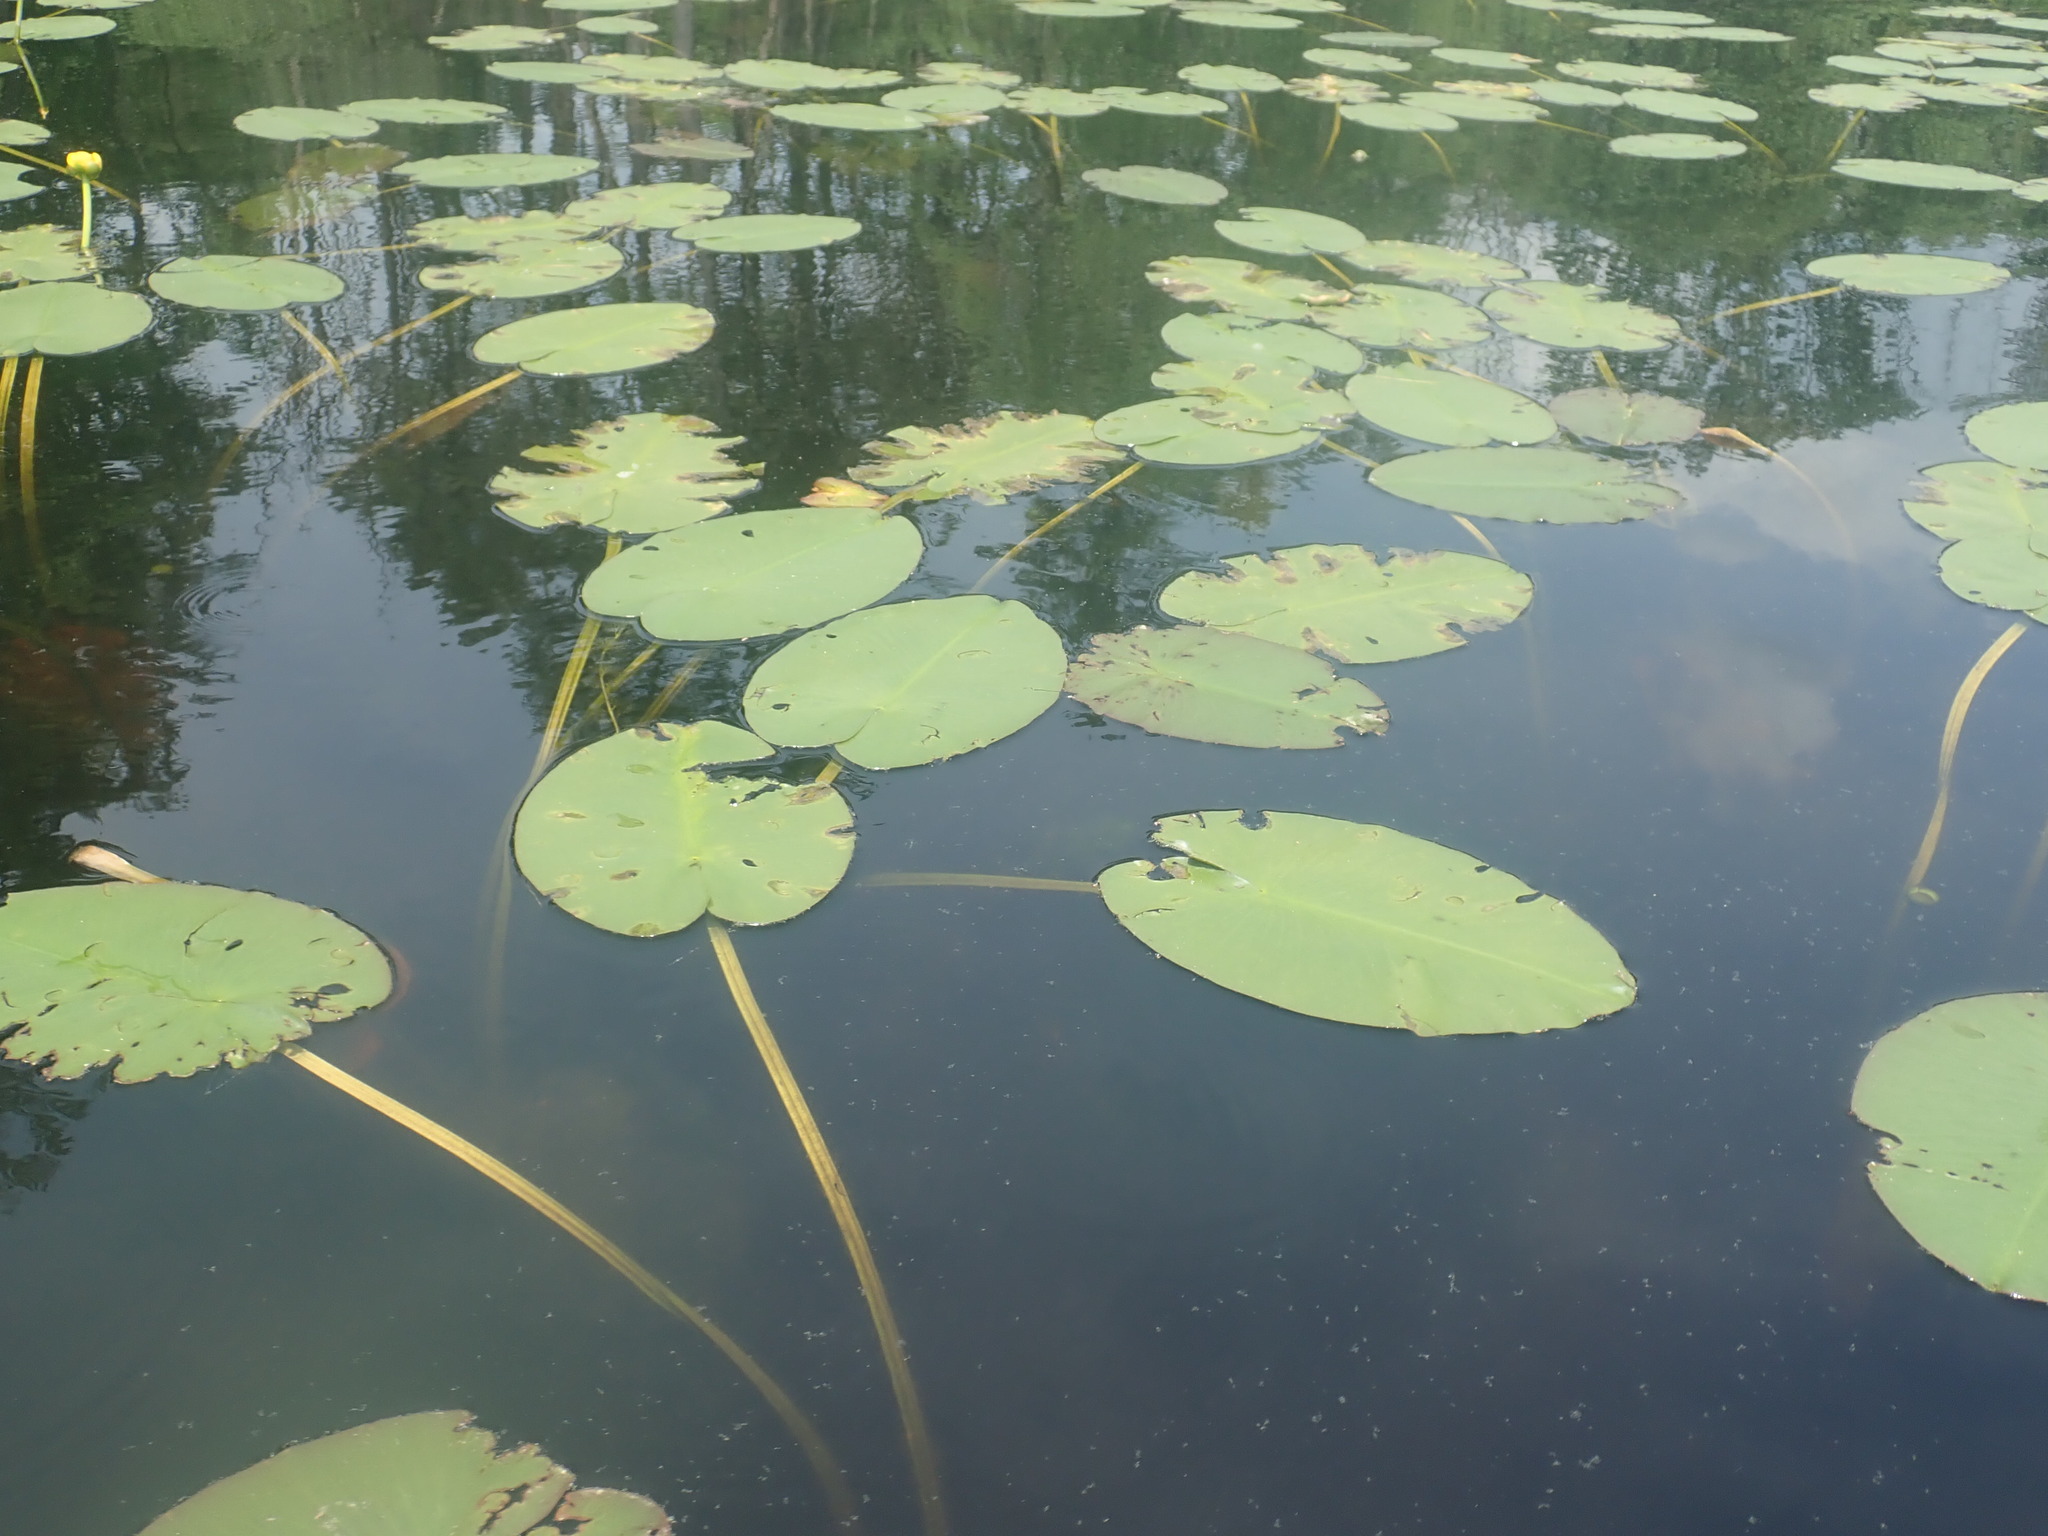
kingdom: Plantae
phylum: Tracheophyta
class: Magnoliopsida
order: Nymphaeales
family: Nymphaeaceae
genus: Nuphar
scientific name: Nuphar variegata
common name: Beaver-root
